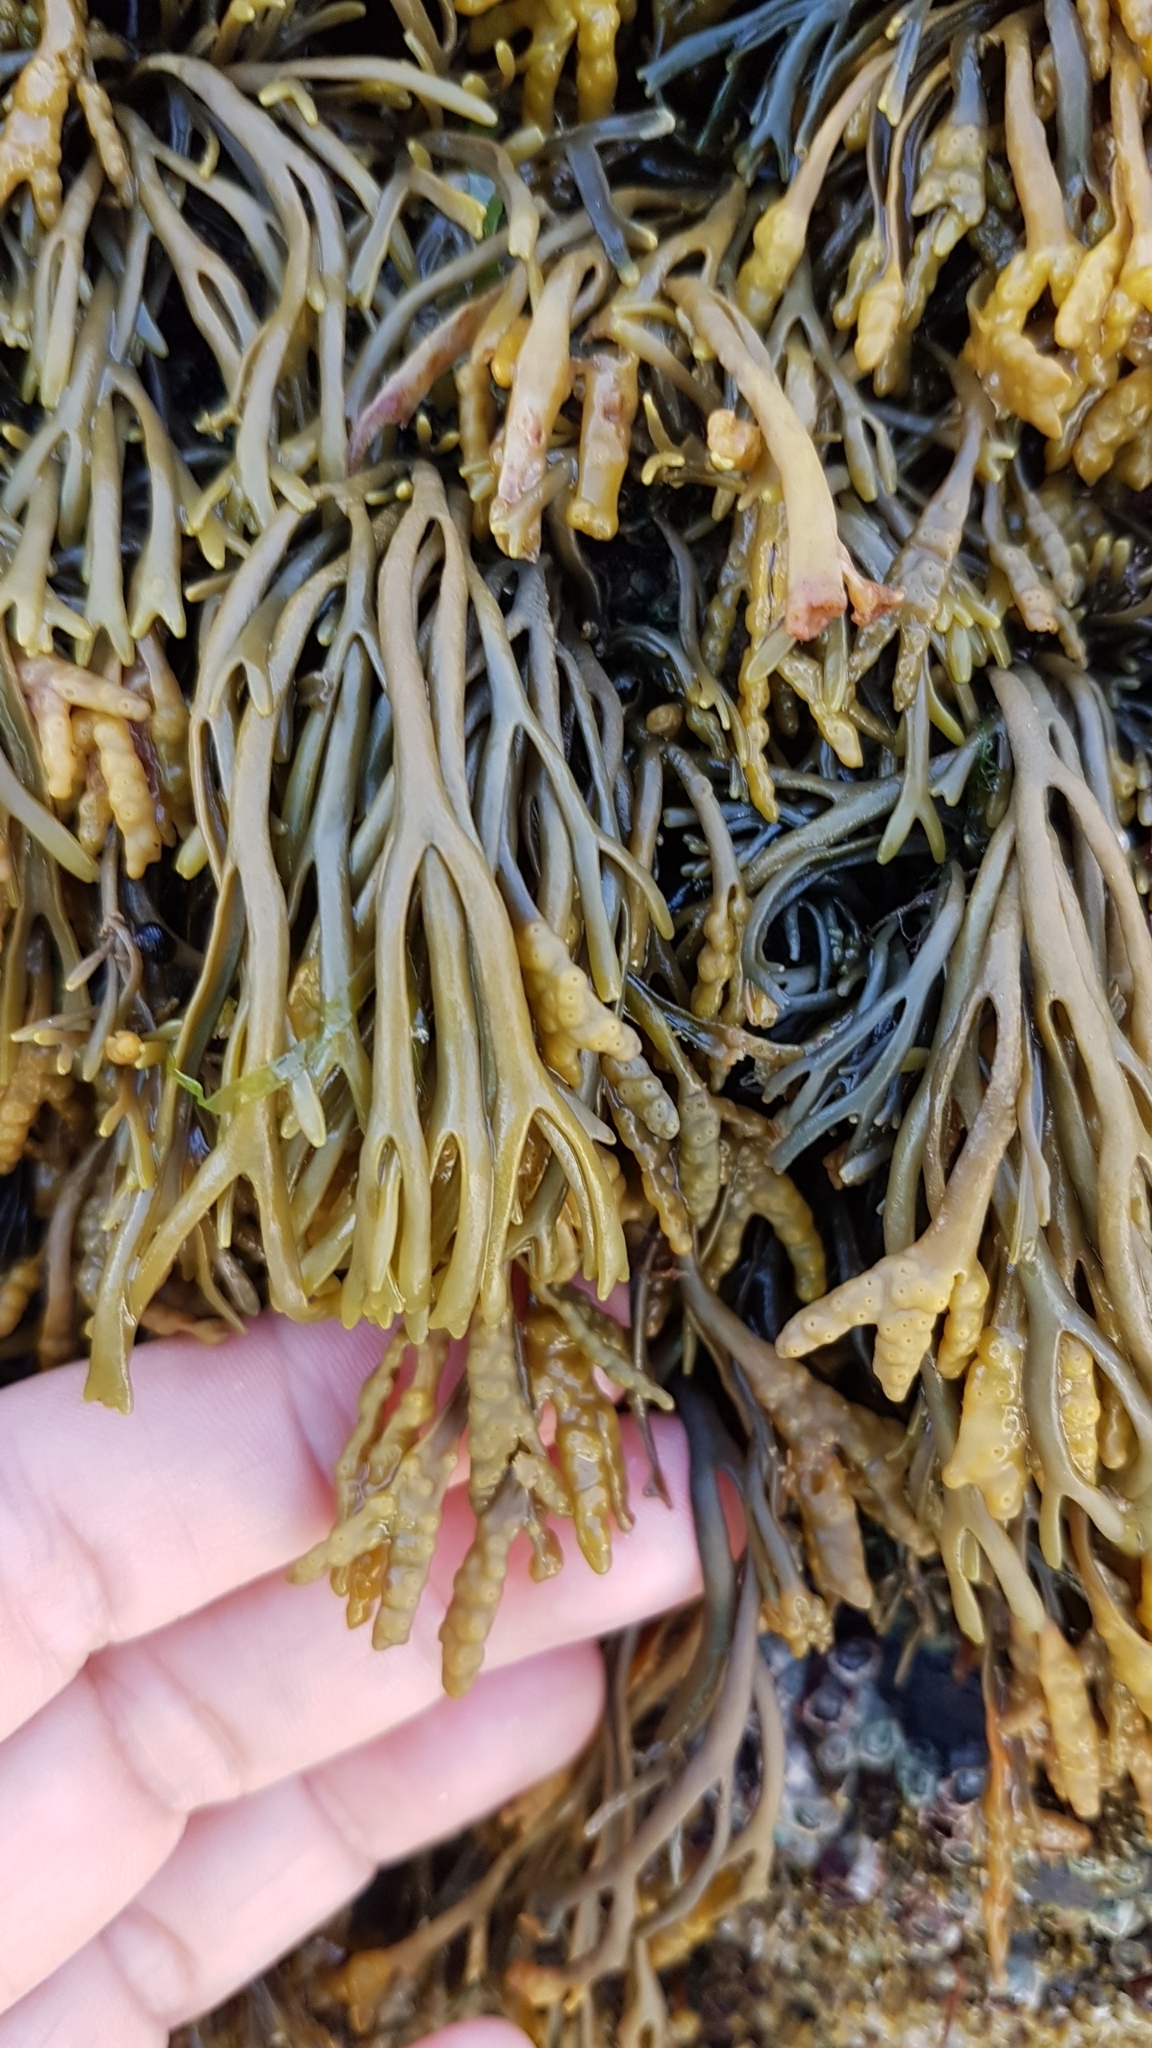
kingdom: Chromista
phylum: Ochrophyta
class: Phaeophyceae
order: Fucales
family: Fucaceae
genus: Pelvetia
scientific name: Pelvetia canaliculata
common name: Channelled wrack
